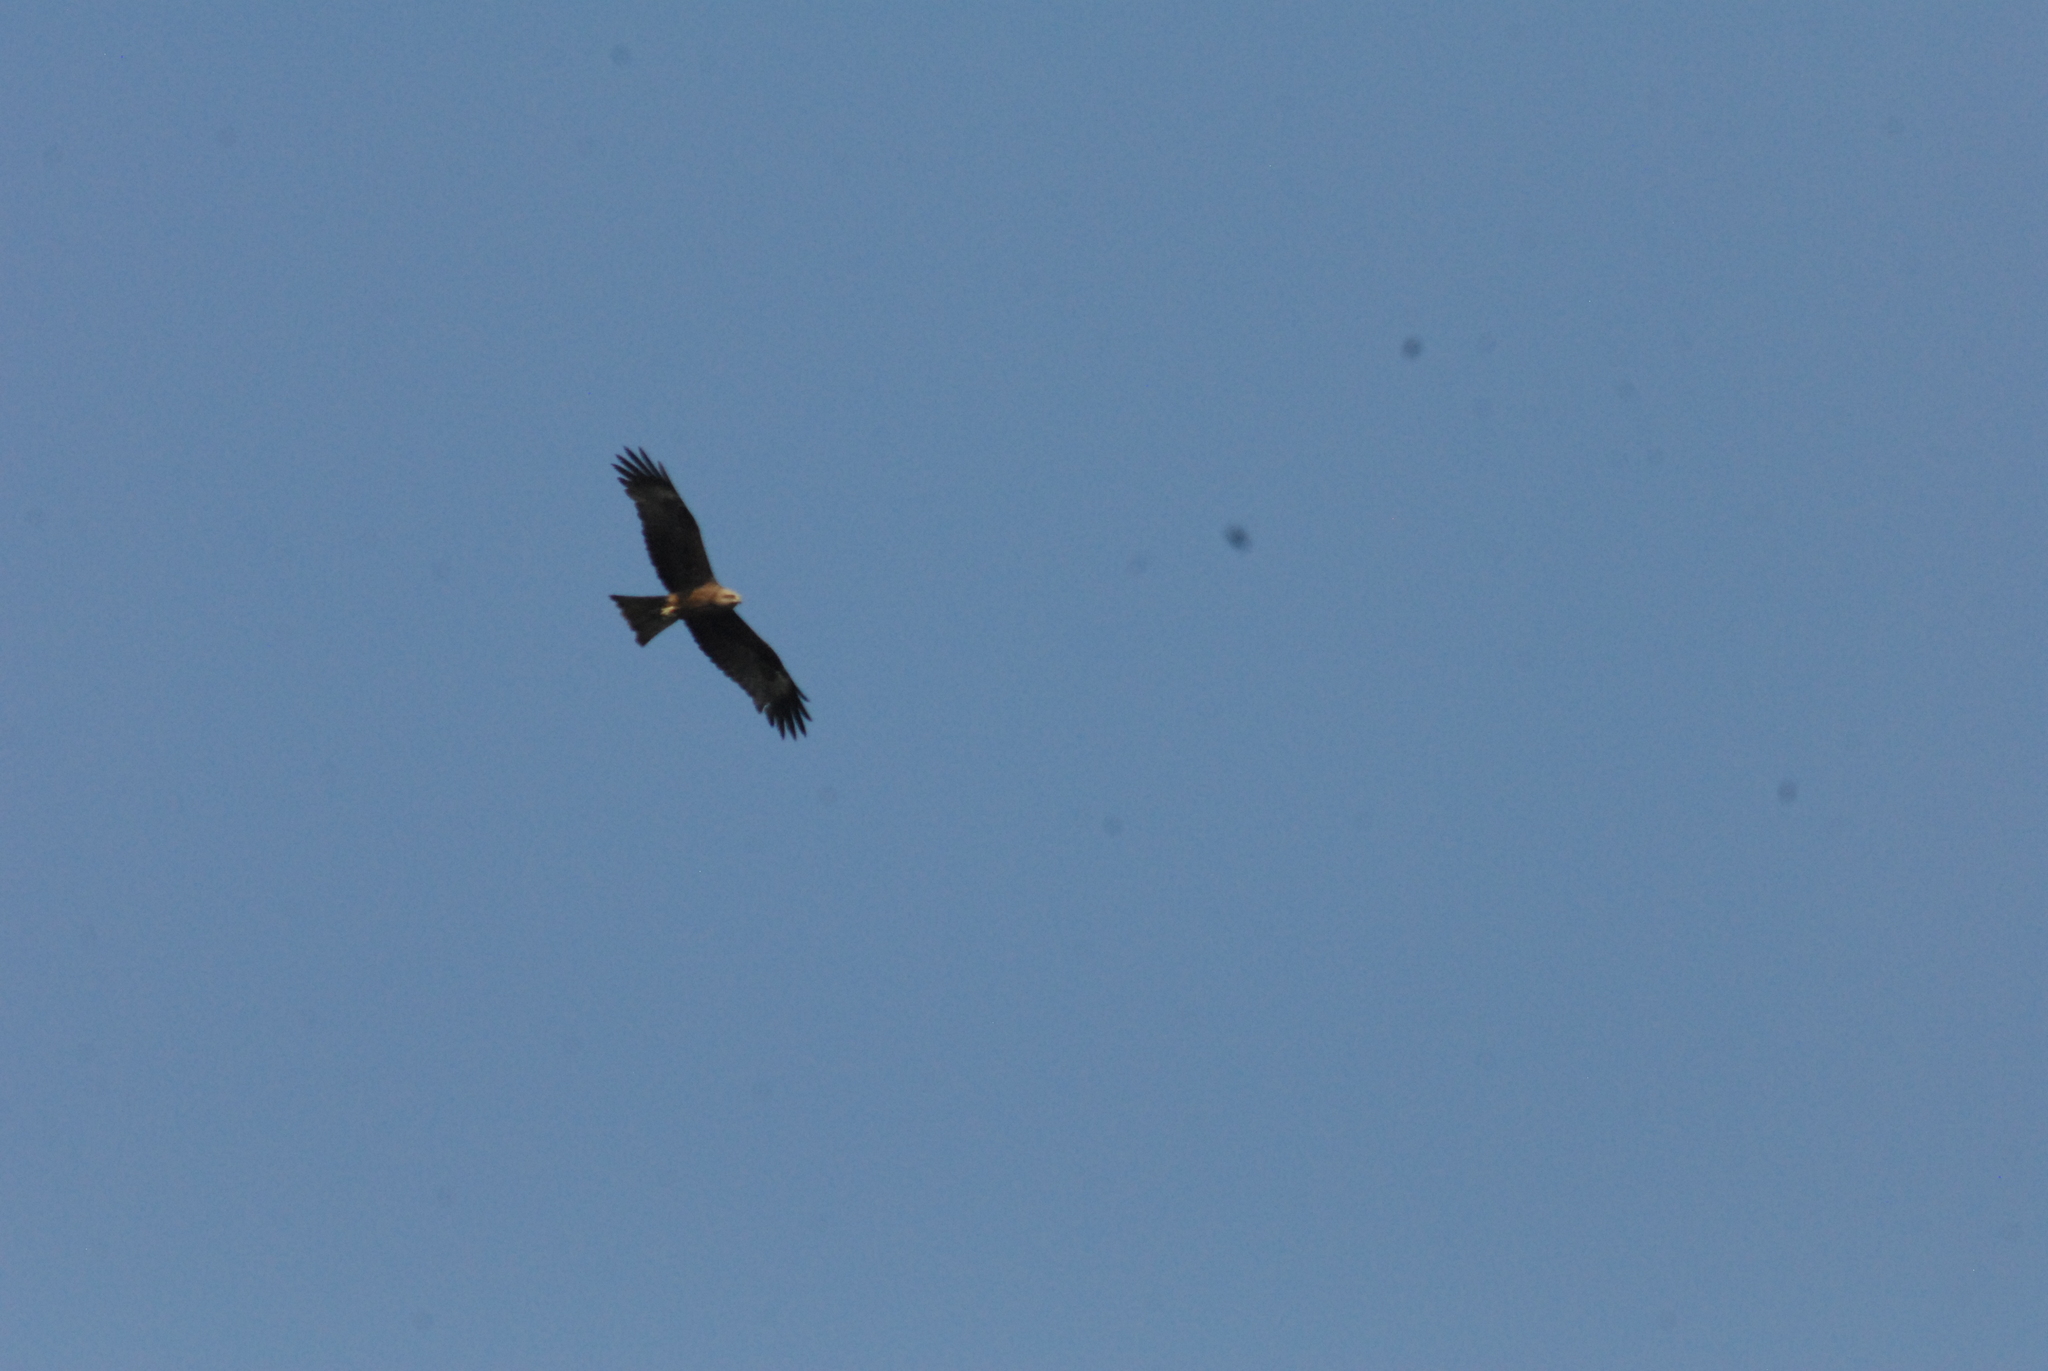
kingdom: Animalia
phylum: Chordata
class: Aves
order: Accipitriformes
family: Accipitridae
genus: Milvus
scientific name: Milvus migrans
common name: Black kite
